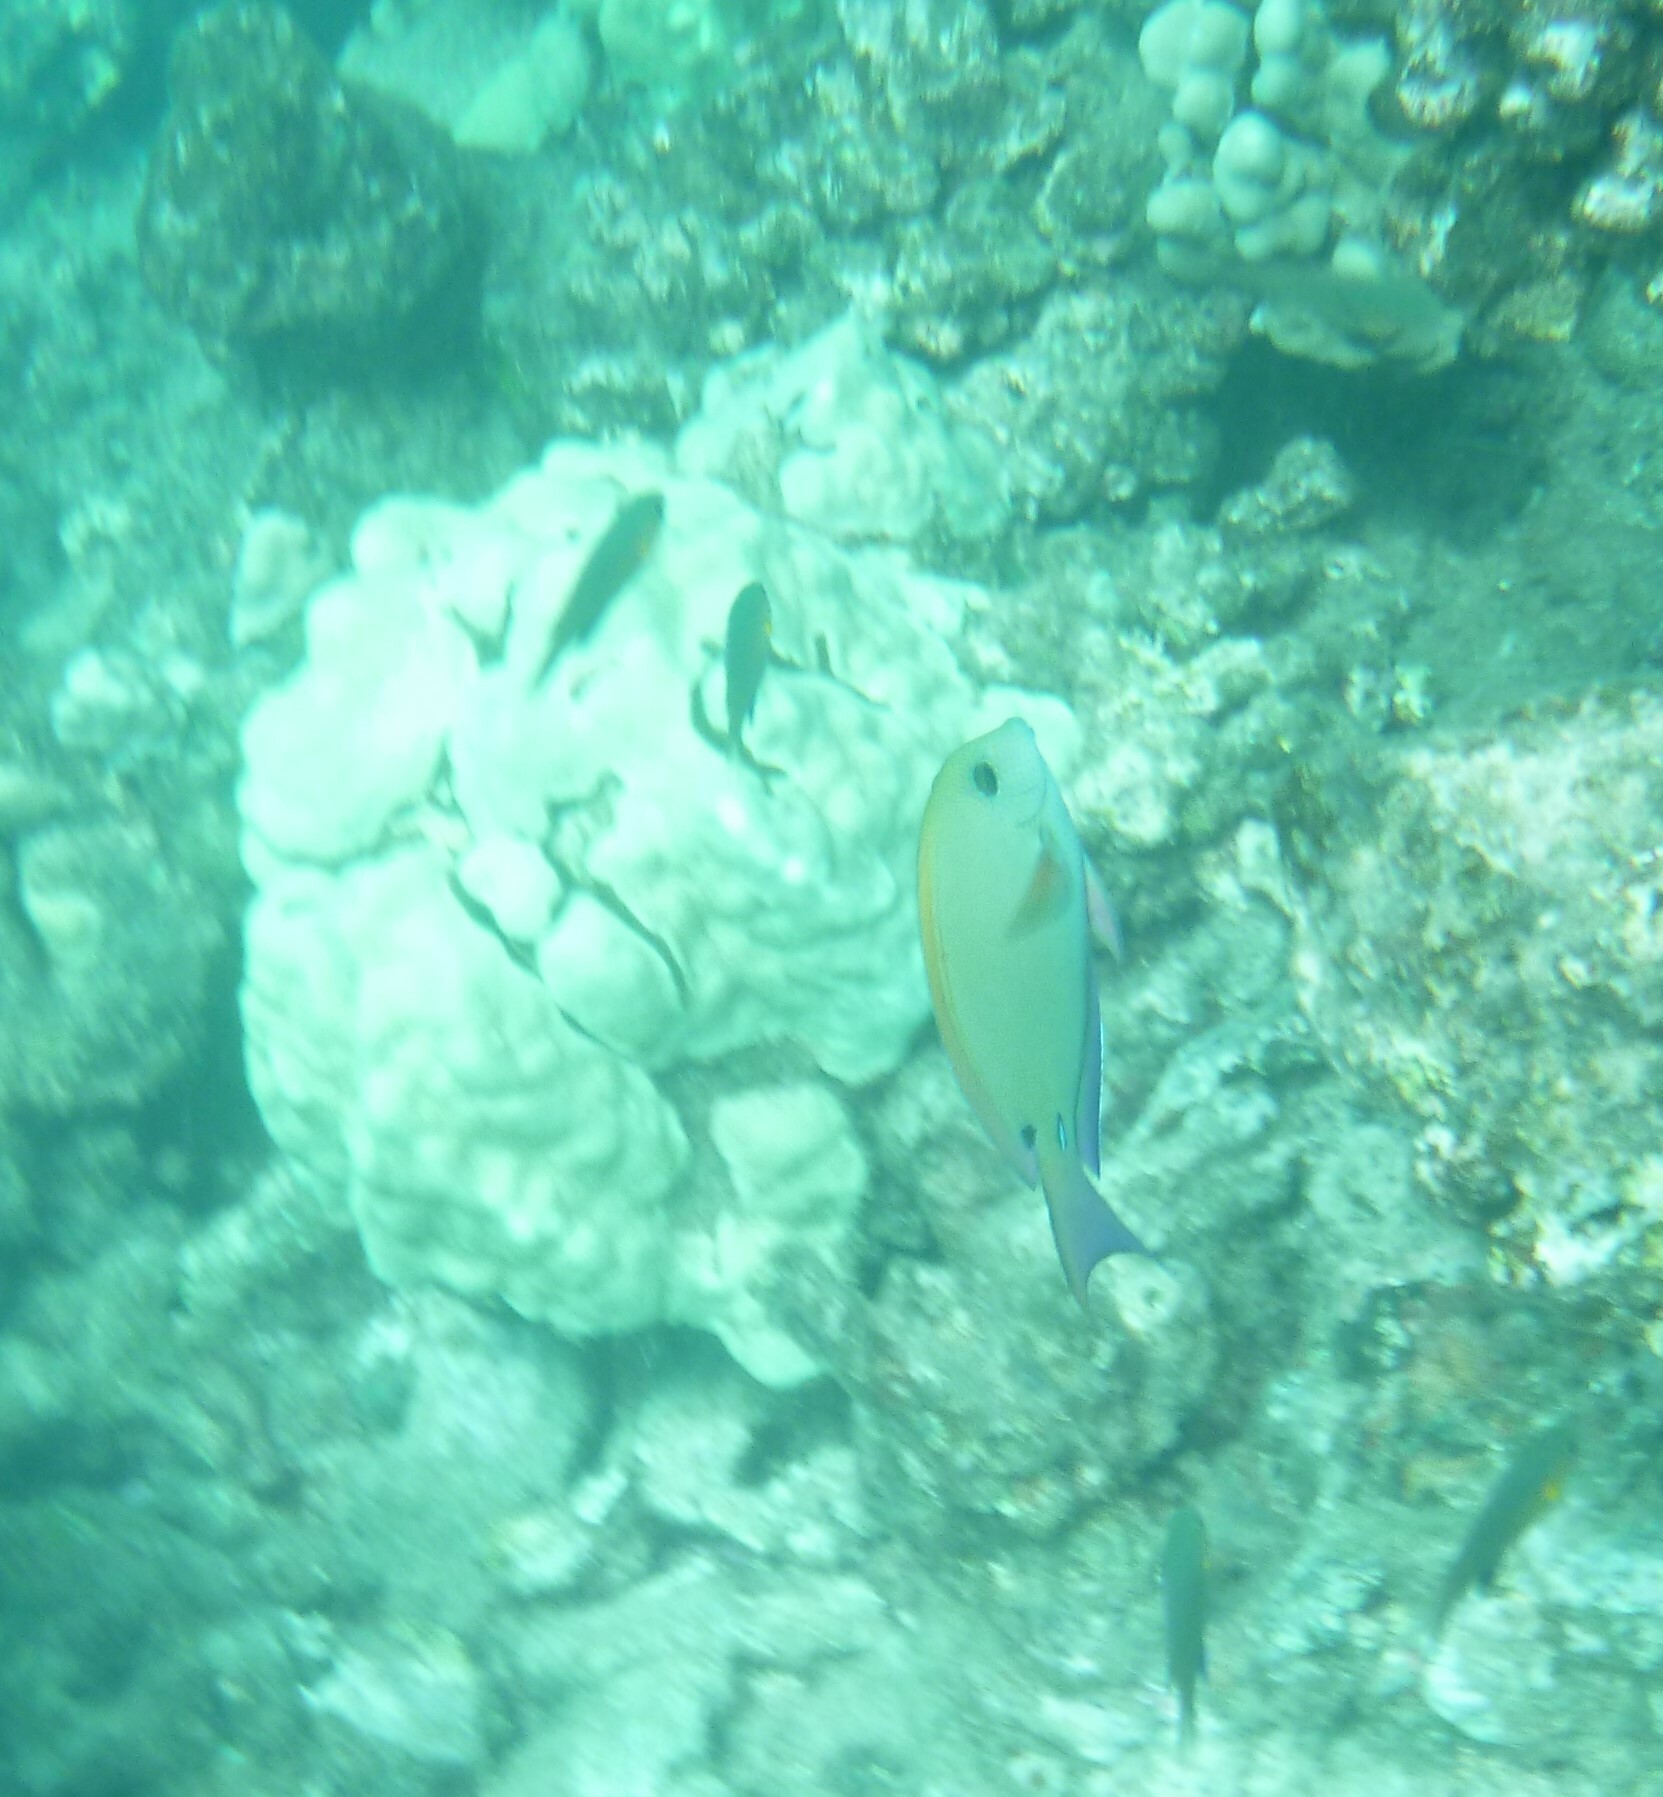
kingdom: Animalia
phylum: Chordata
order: Perciformes
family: Acanthuridae
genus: Acanthurus
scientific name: Acanthurus nigrofuscus
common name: Blackspot surgeonfish
